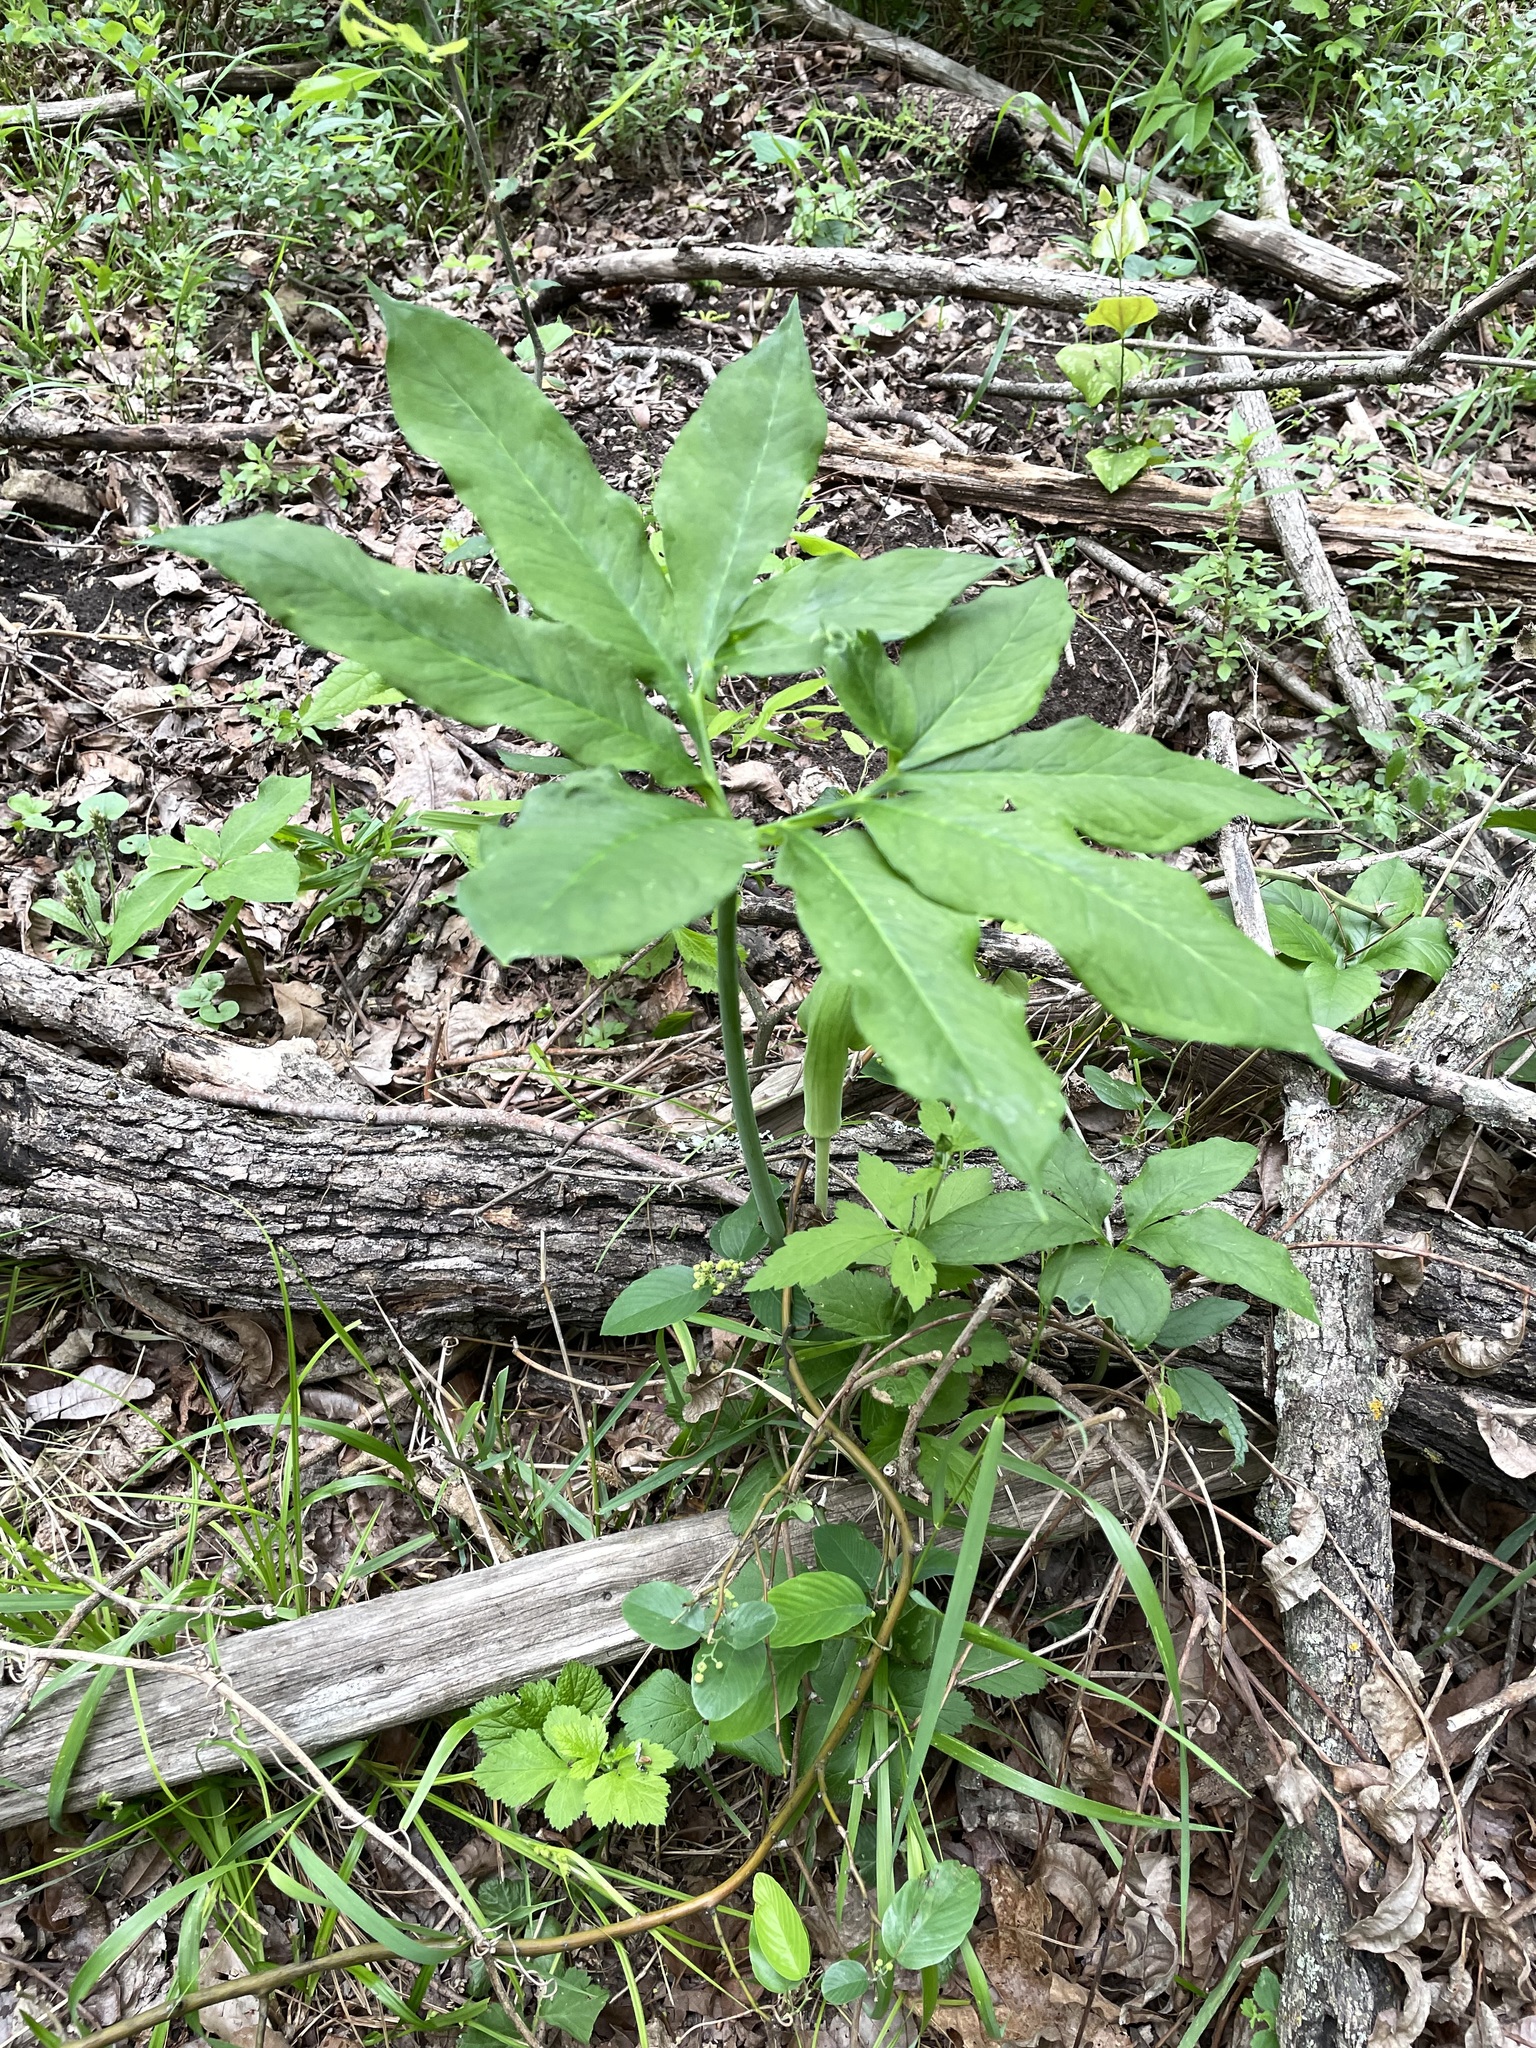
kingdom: Plantae
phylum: Tracheophyta
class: Liliopsida
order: Alismatales
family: Araceae
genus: Arisaema
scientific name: Arisaema dracontium
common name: Dragon-arum
